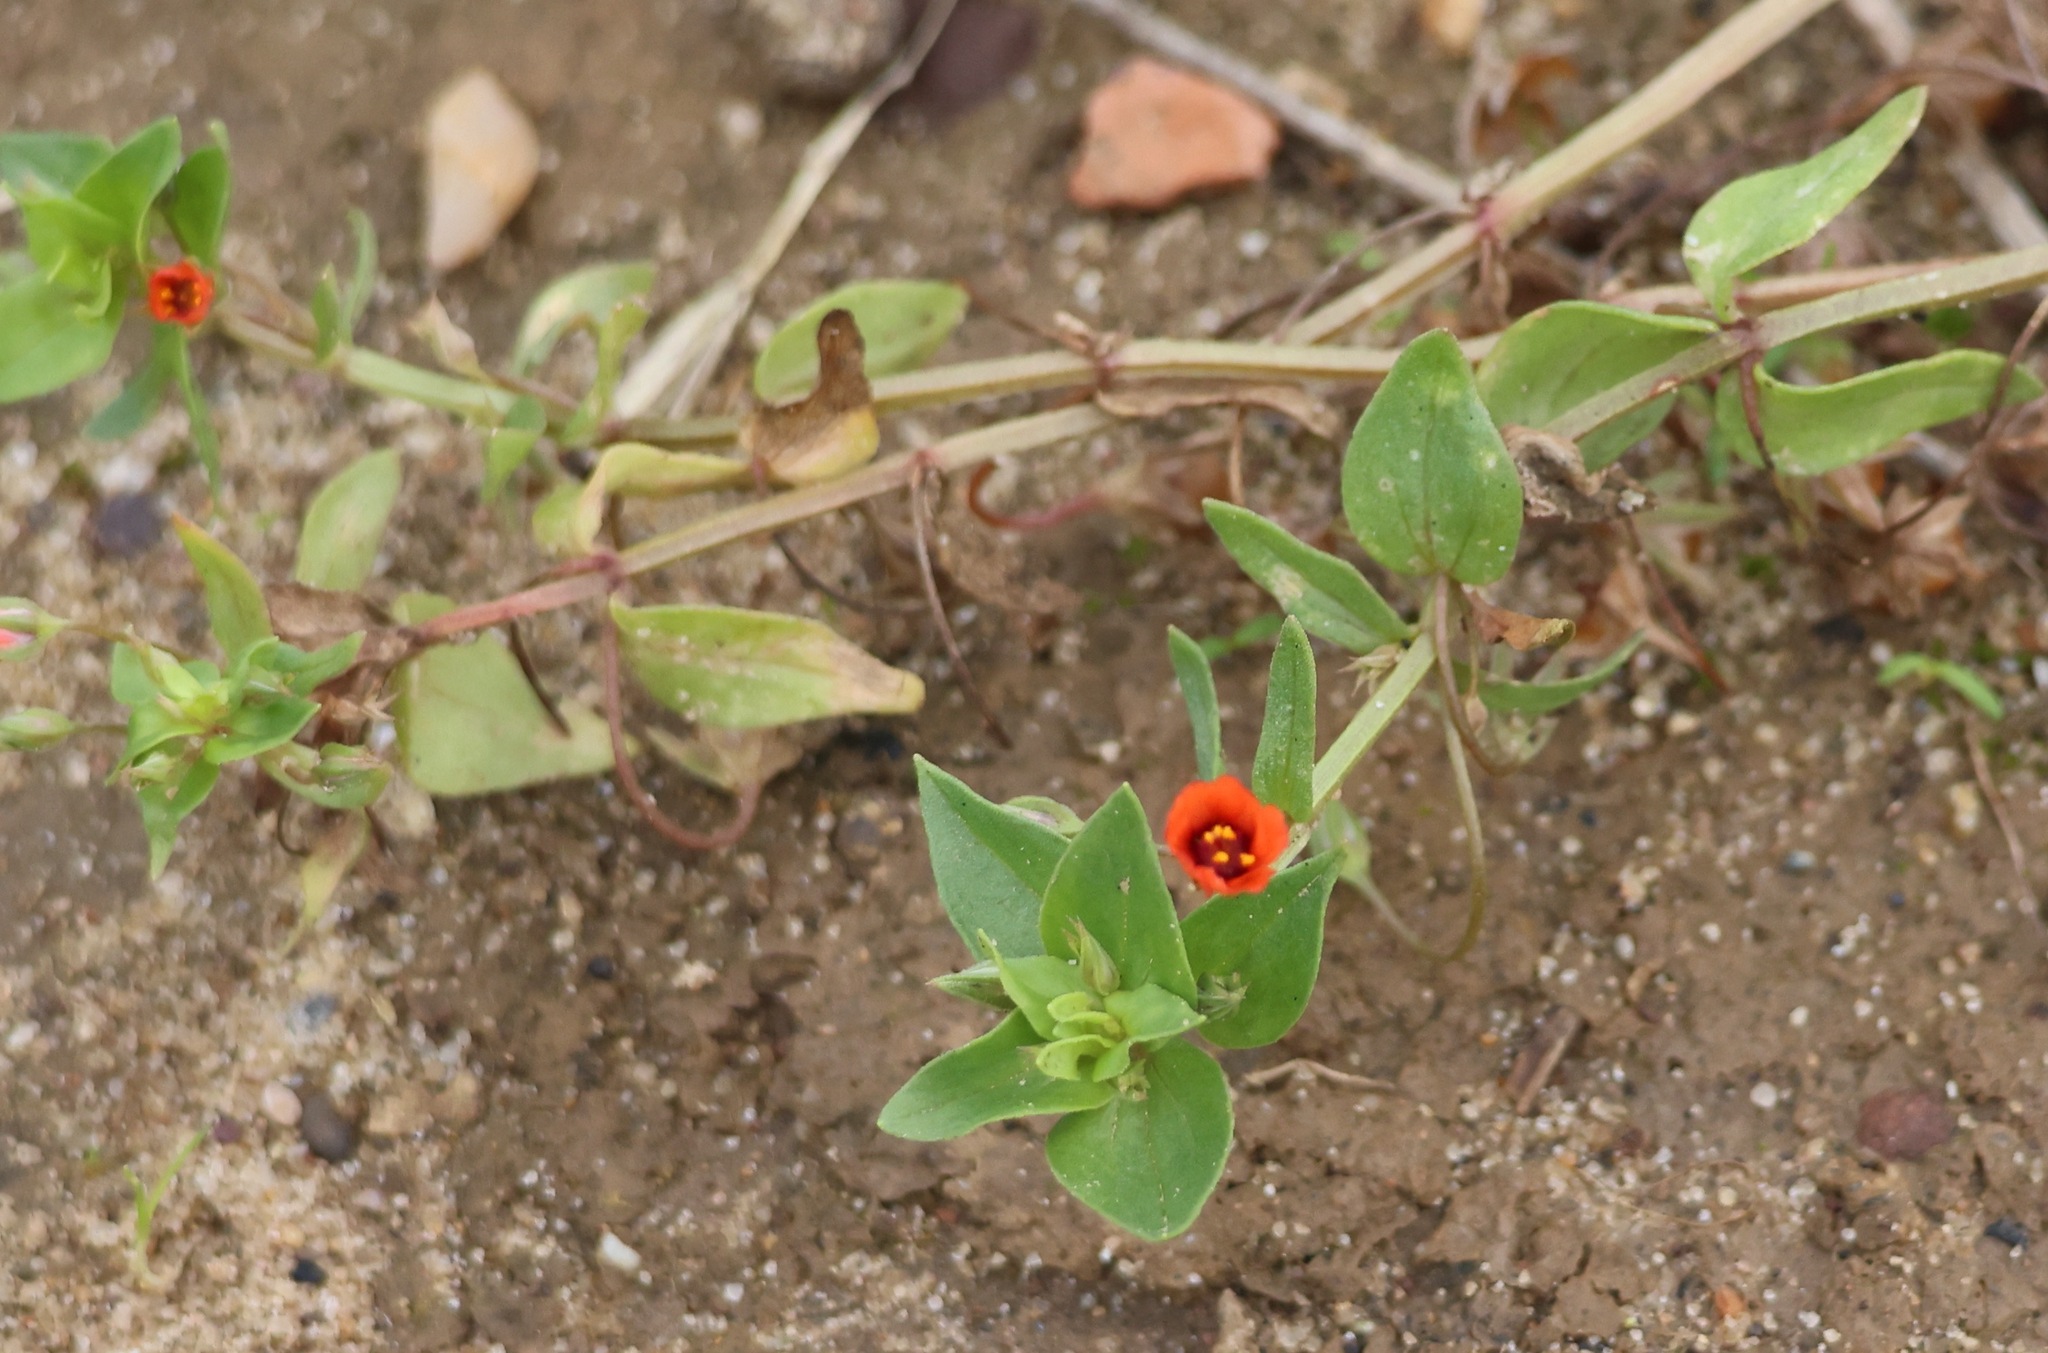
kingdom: Plantae
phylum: Tracheophyta
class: Magnoliopsida
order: Ericales
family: Primulaceae
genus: Lysimachia
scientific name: Lysimachia arvensis
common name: Scarlet pimpernel
